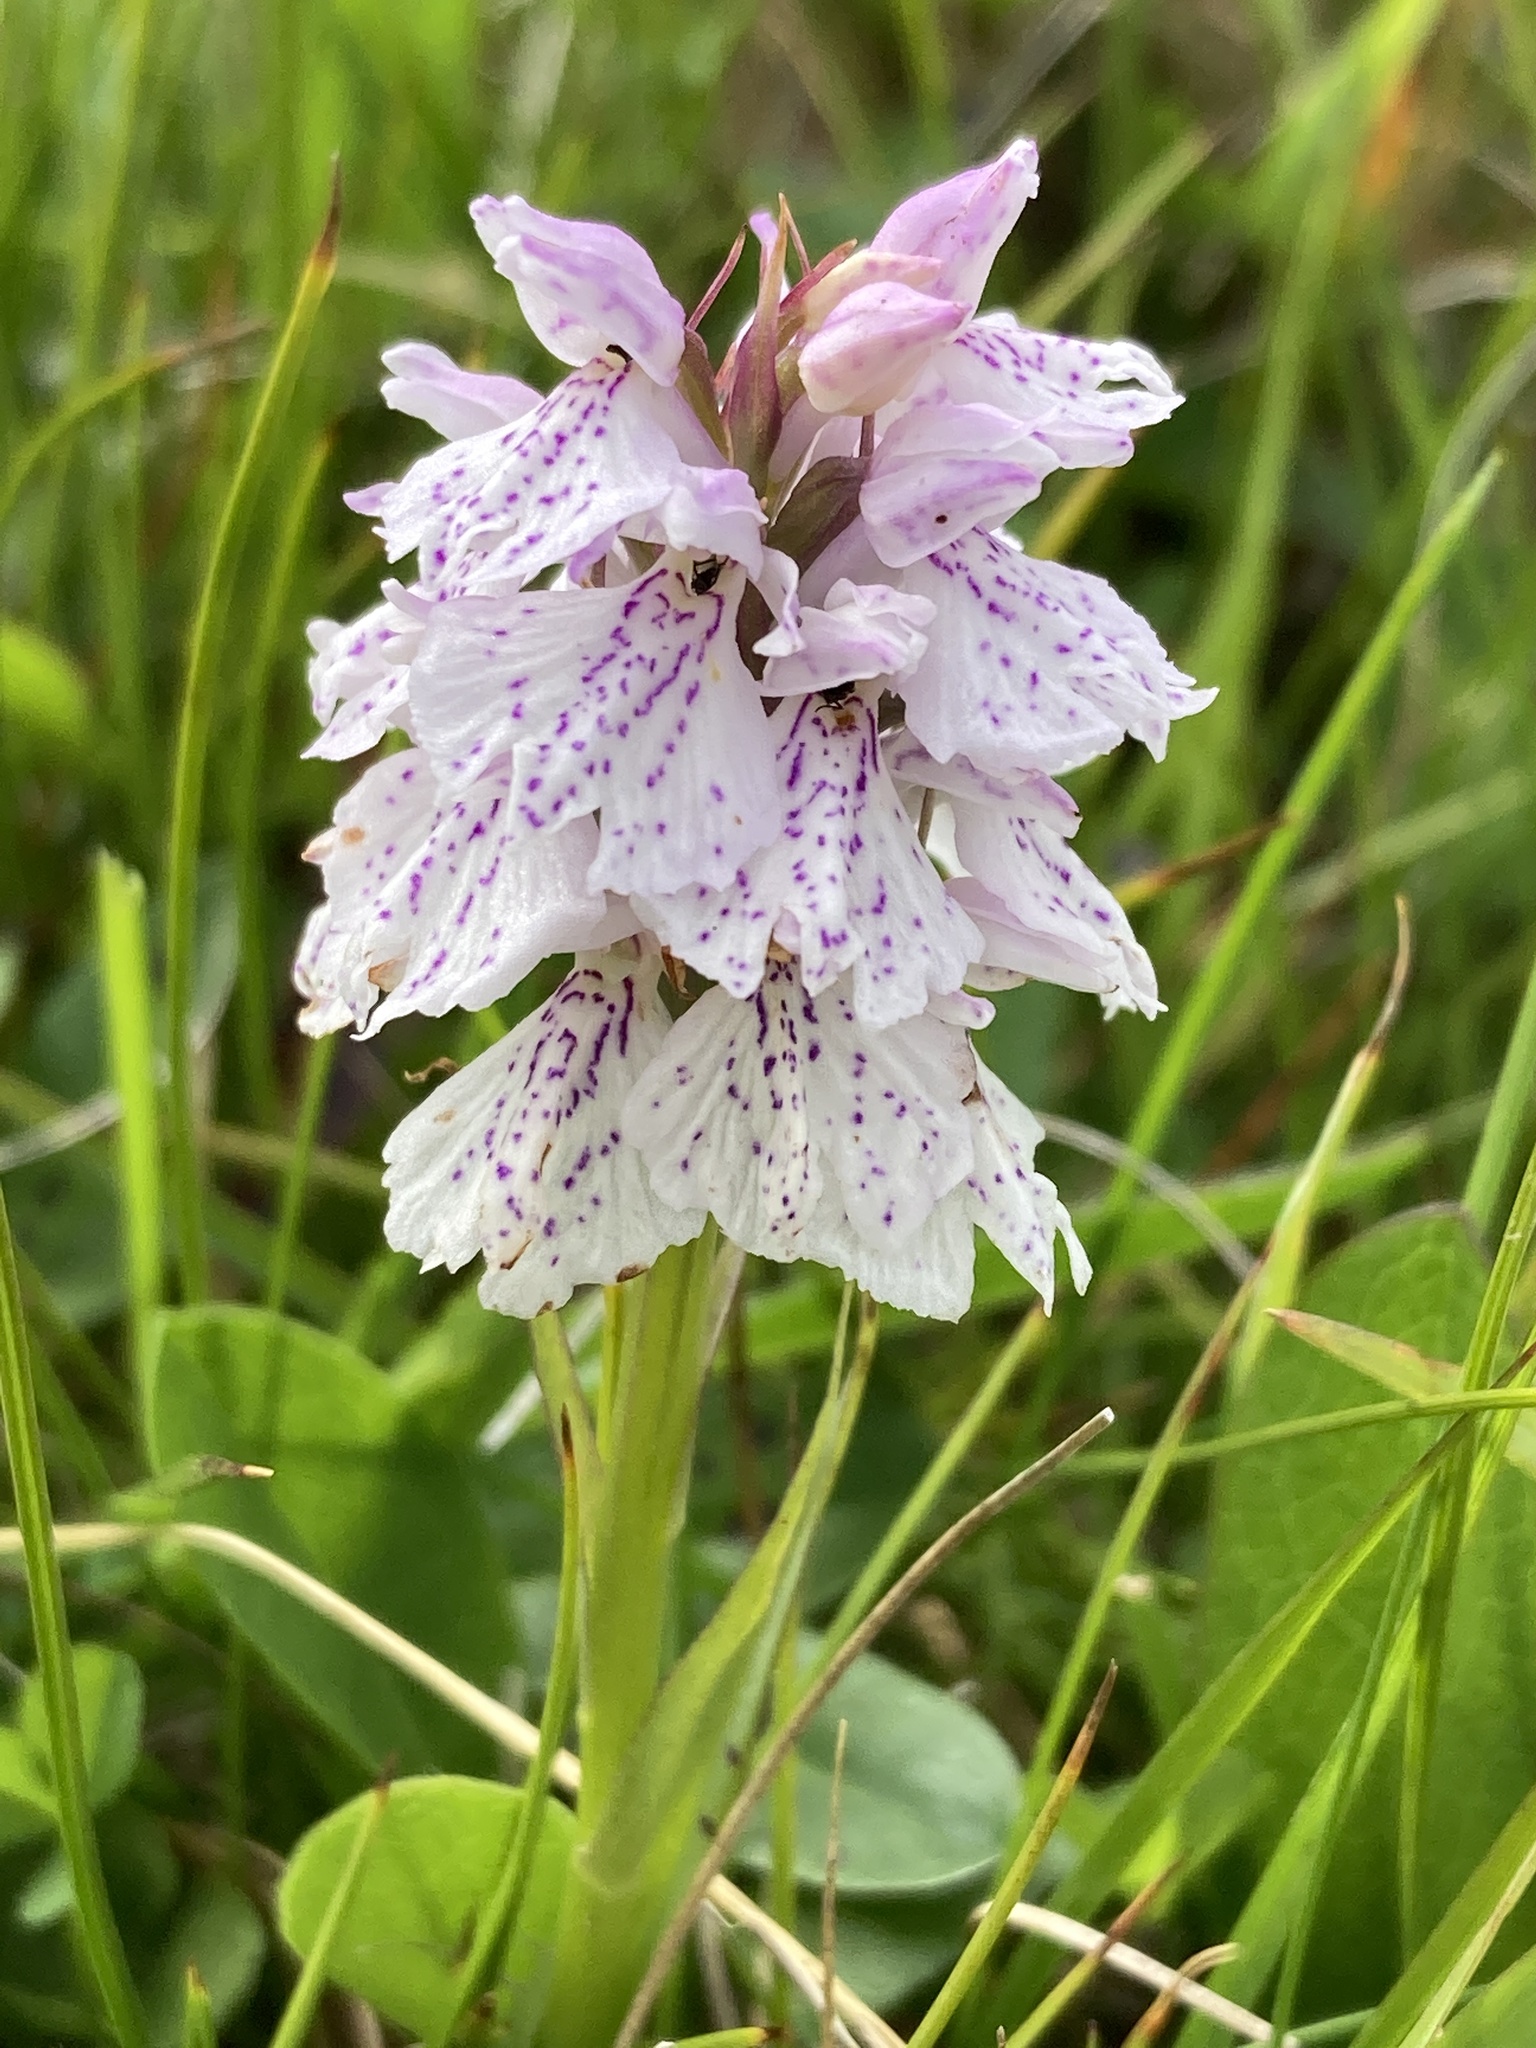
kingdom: Plantae
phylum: Tracheophyta
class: Liliopsida
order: Asparagales
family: Orchidaceae
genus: Dactylorhiza
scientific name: Dactylorhiza maculata
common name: Heath spotted-orchid
